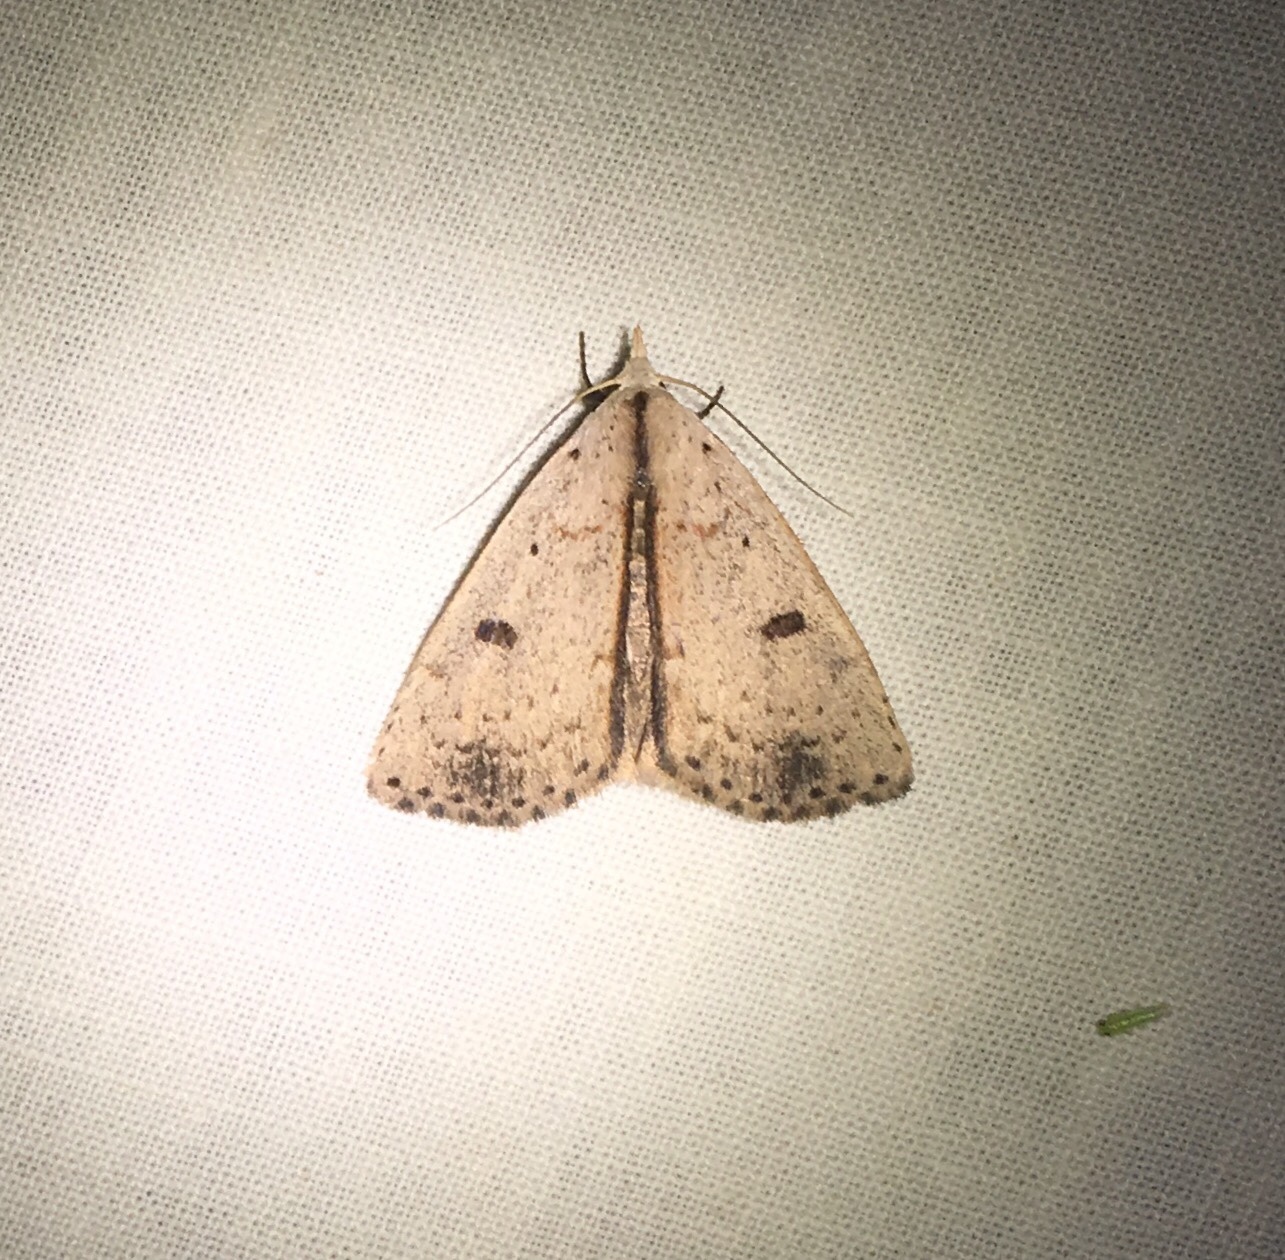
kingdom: Animalia
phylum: Arthropoda
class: Insecta
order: Lepidoptera
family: Erebidae
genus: Scolecocampa
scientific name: Scolecocampa liburna
